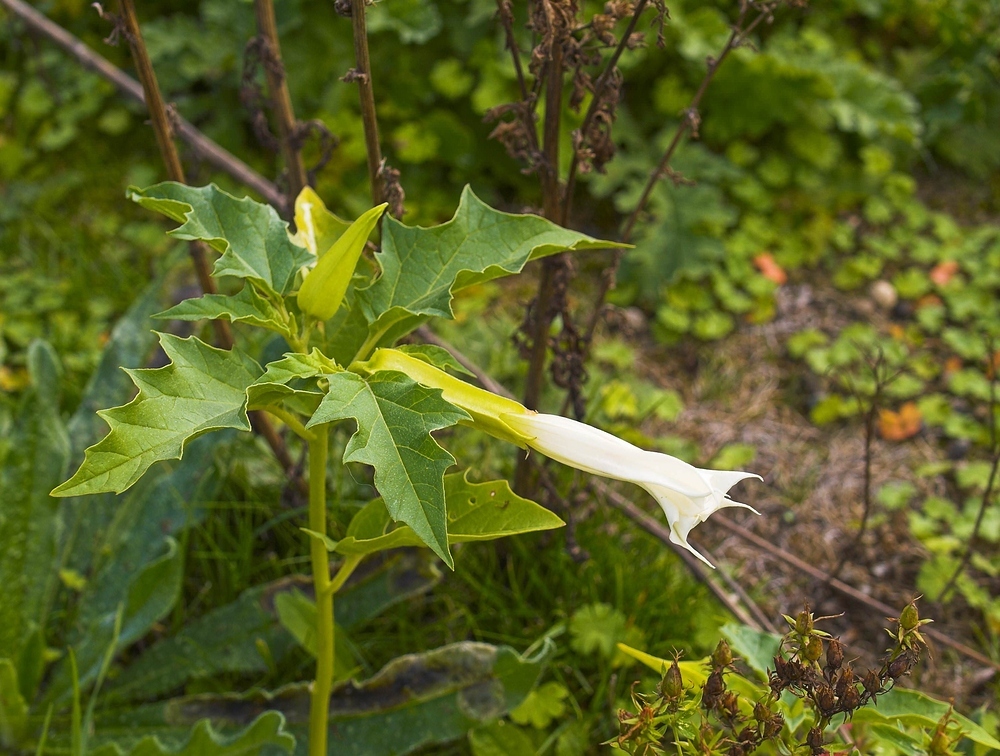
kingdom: Plantae
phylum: Tracheophyta
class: Magnoliopsida
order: Solanales
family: Solanaceae
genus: Datura
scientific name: Datura stramonium
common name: Thorn-apple
